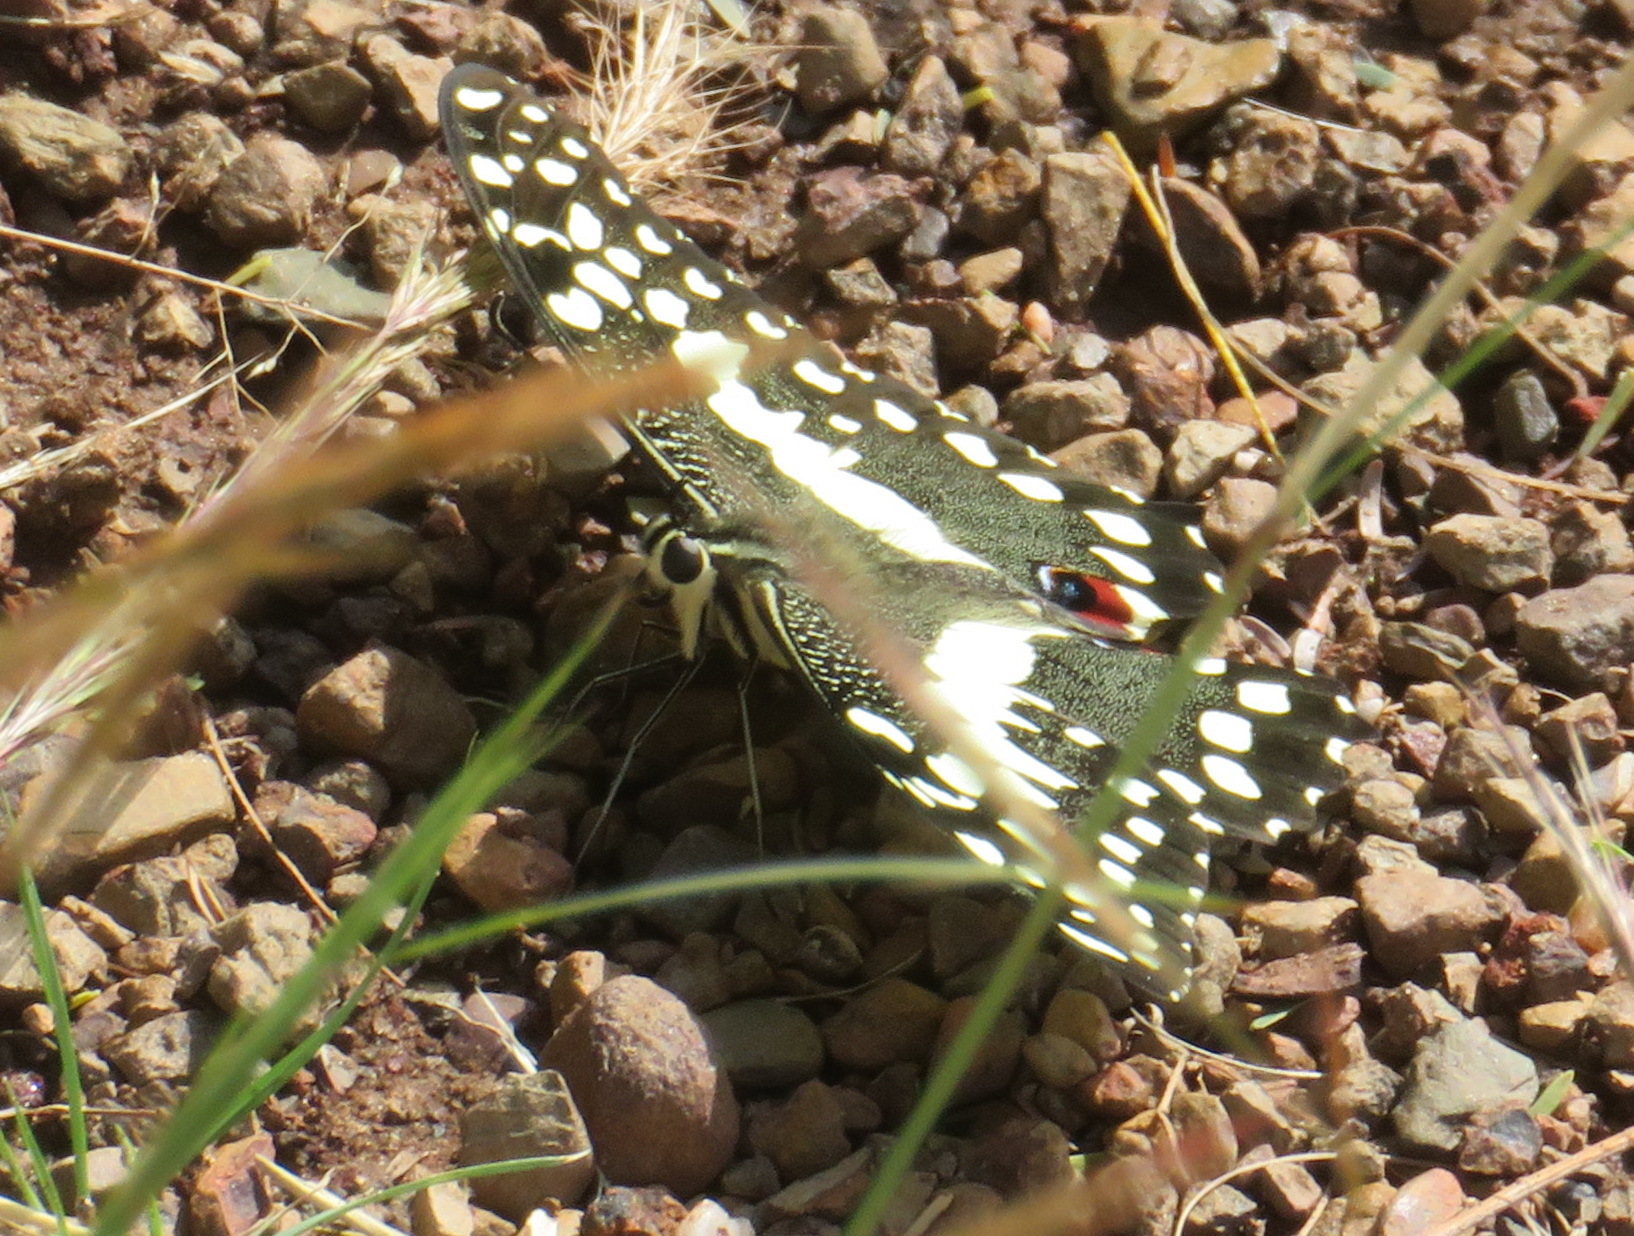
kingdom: Animalia
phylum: Arthropoda
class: Insecta
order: Lepidoptera
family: Papilionidae
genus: Papilio
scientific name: Papilio demodocus
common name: Christmas butterfly
